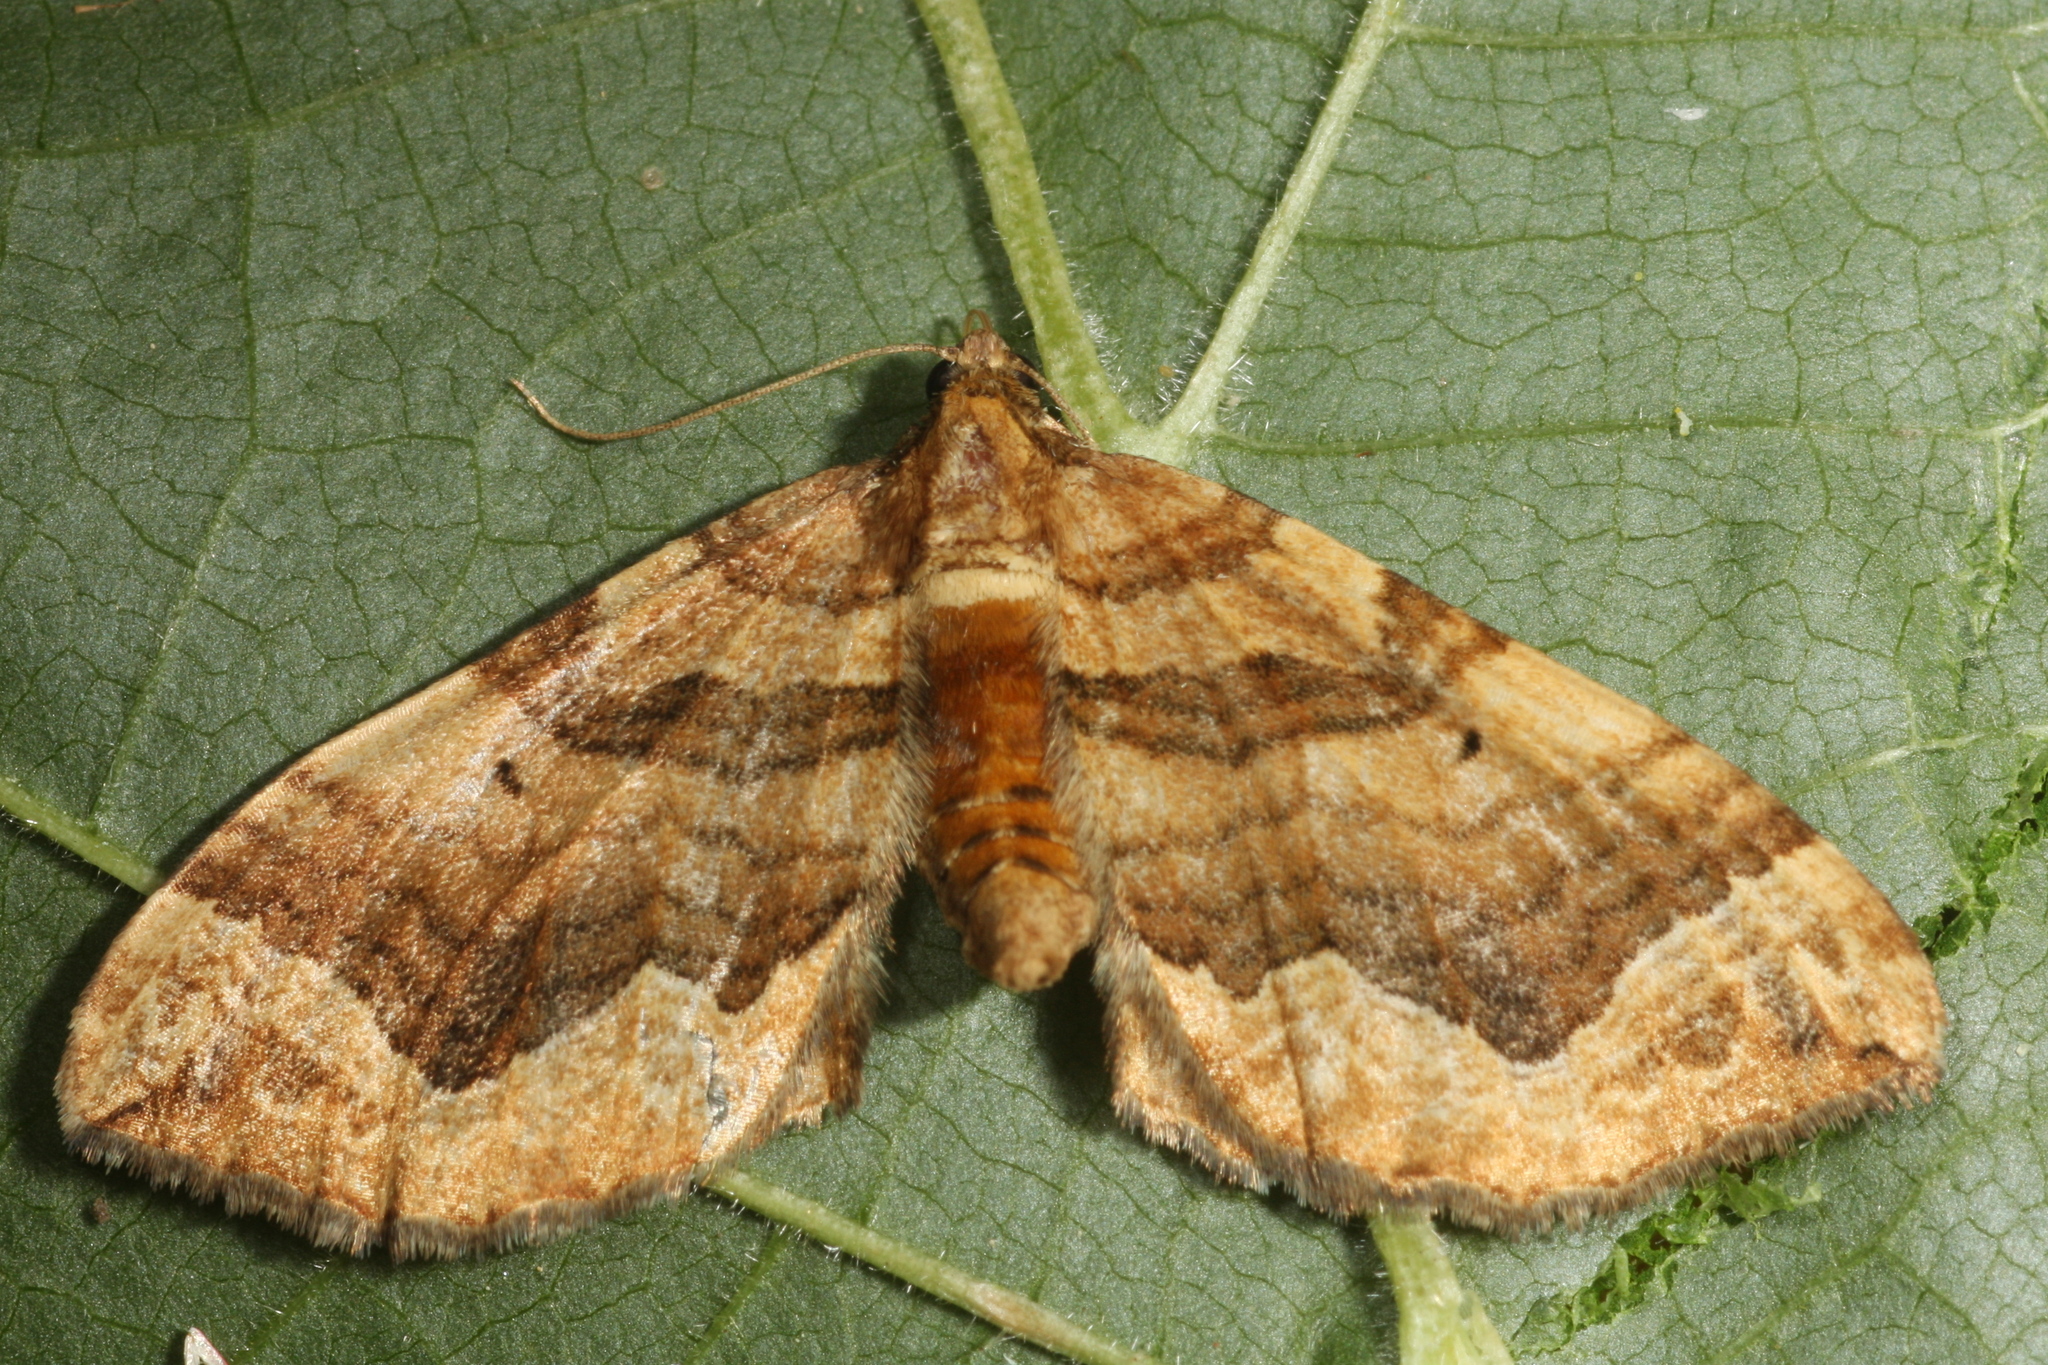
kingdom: Animalia
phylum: Arthropoda
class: Insecta
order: Lepidoptera
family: Geometridae
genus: Pelurga
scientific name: Pelurga comitata
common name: Dark spinach
